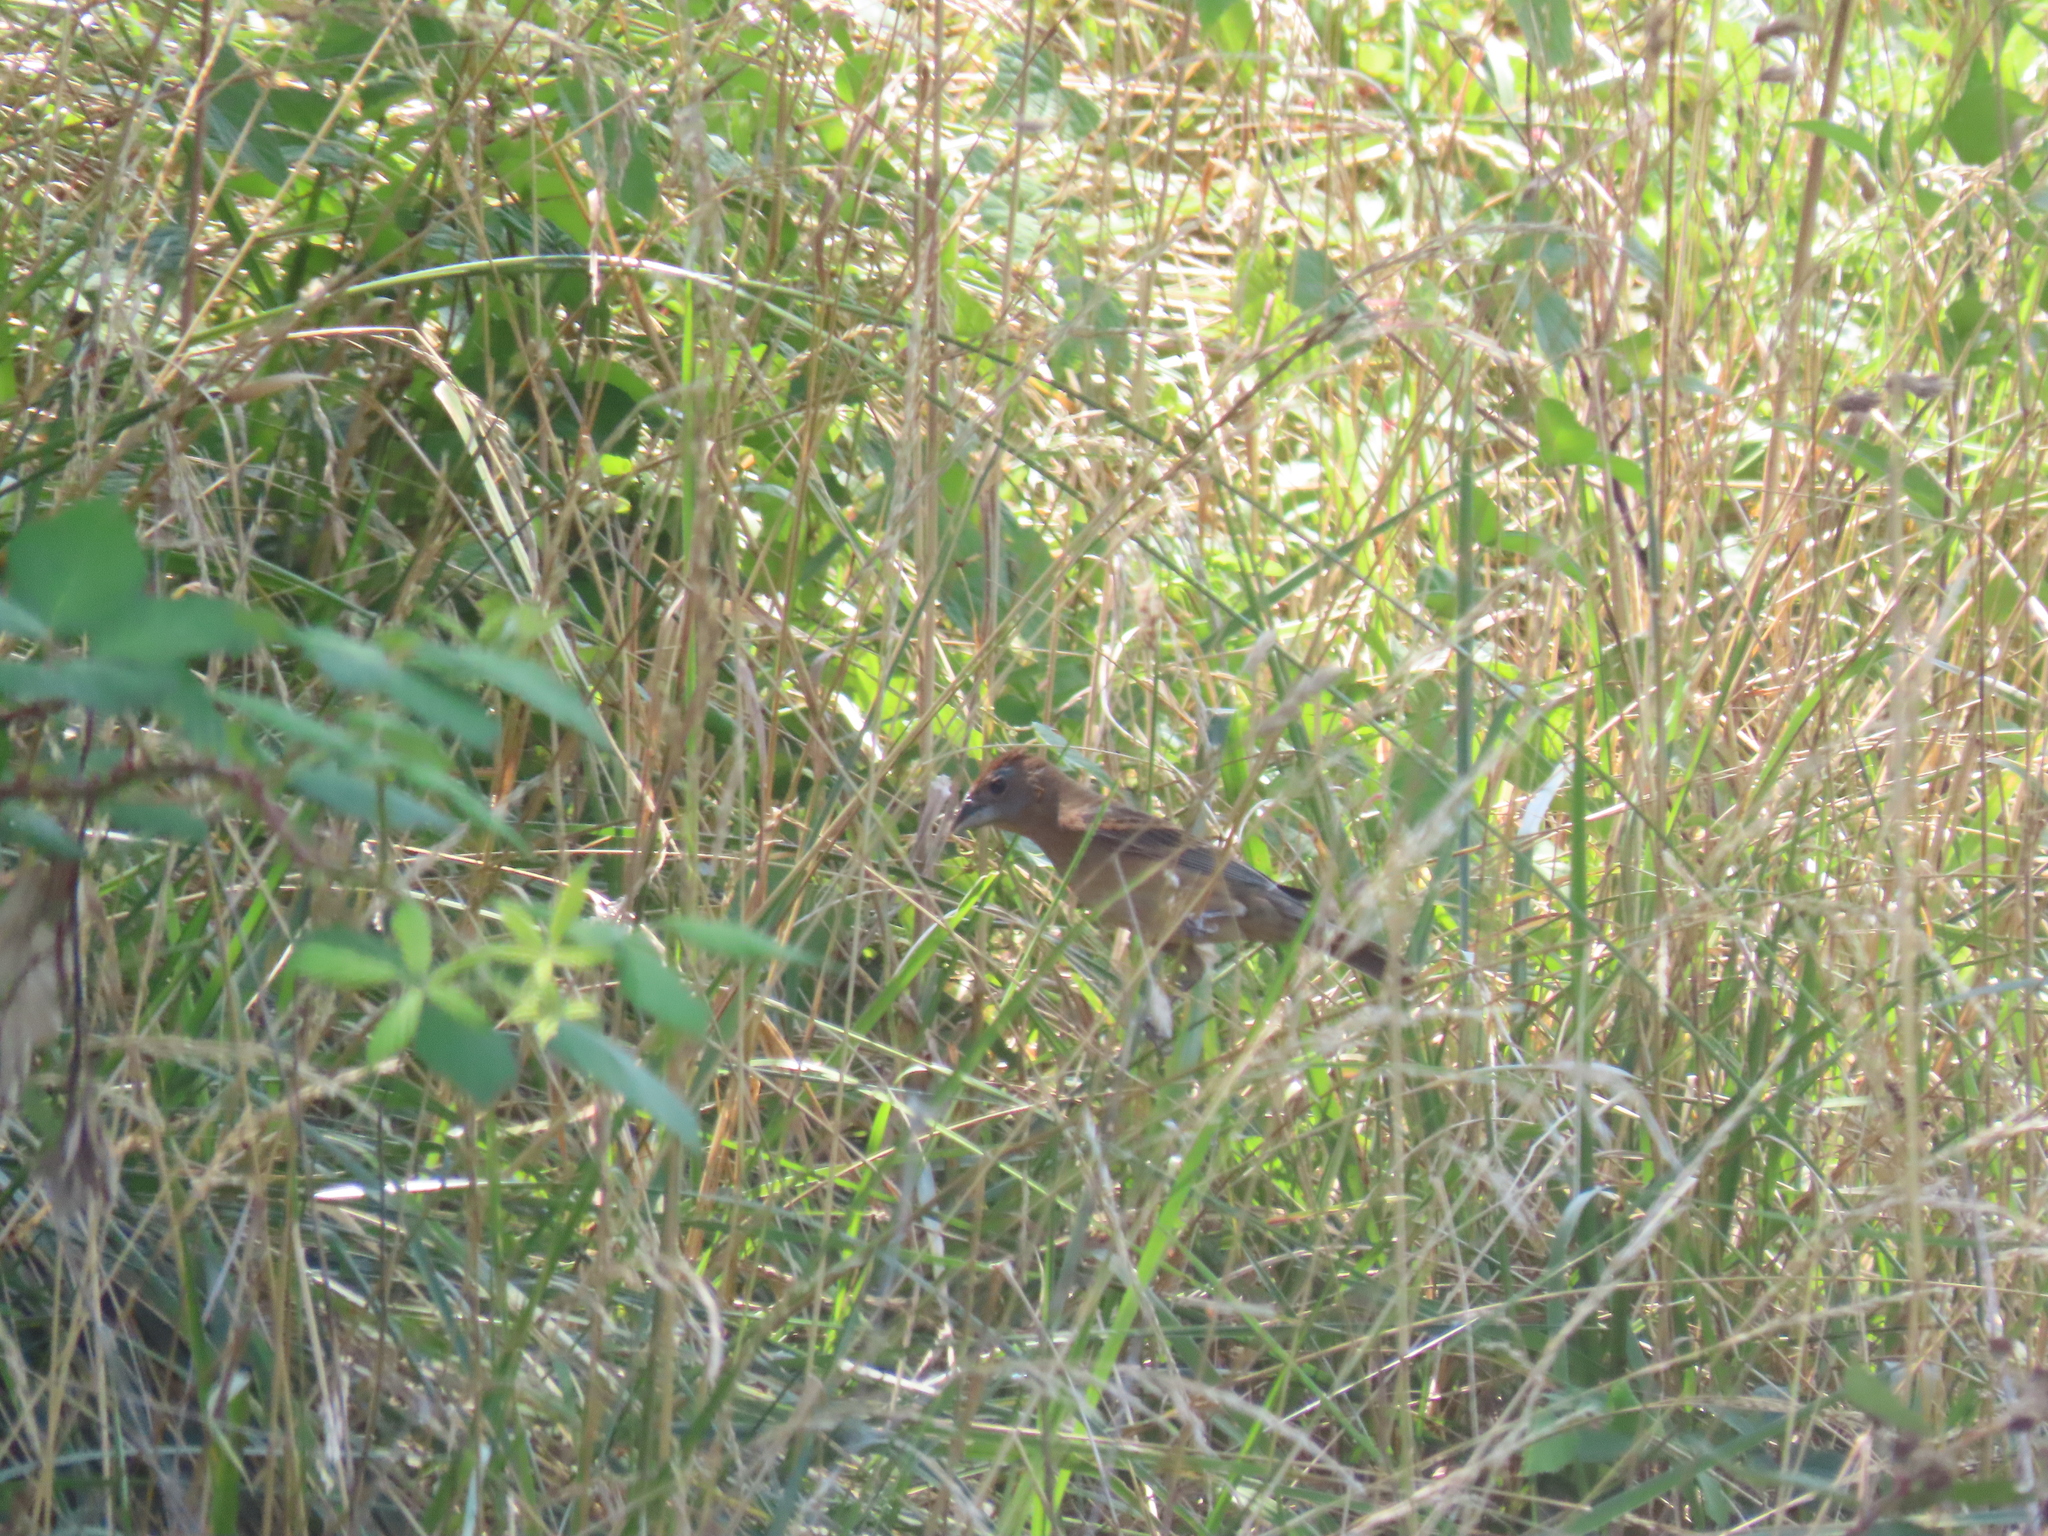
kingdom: Animalia
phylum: Chordata
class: Aves
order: Passeriformes
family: Cardinalidae
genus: Passerina
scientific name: Passerina caerulea
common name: Blue grosbeak
